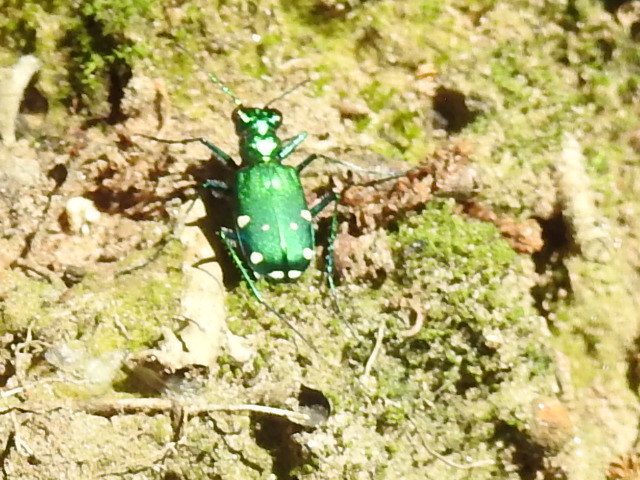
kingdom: Animalia
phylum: Arthropoda
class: Insecta
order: Coleoptera
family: Carabidae
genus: Cicindela
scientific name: Cicindela sexguttata
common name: Six-spotted tiger beetle
